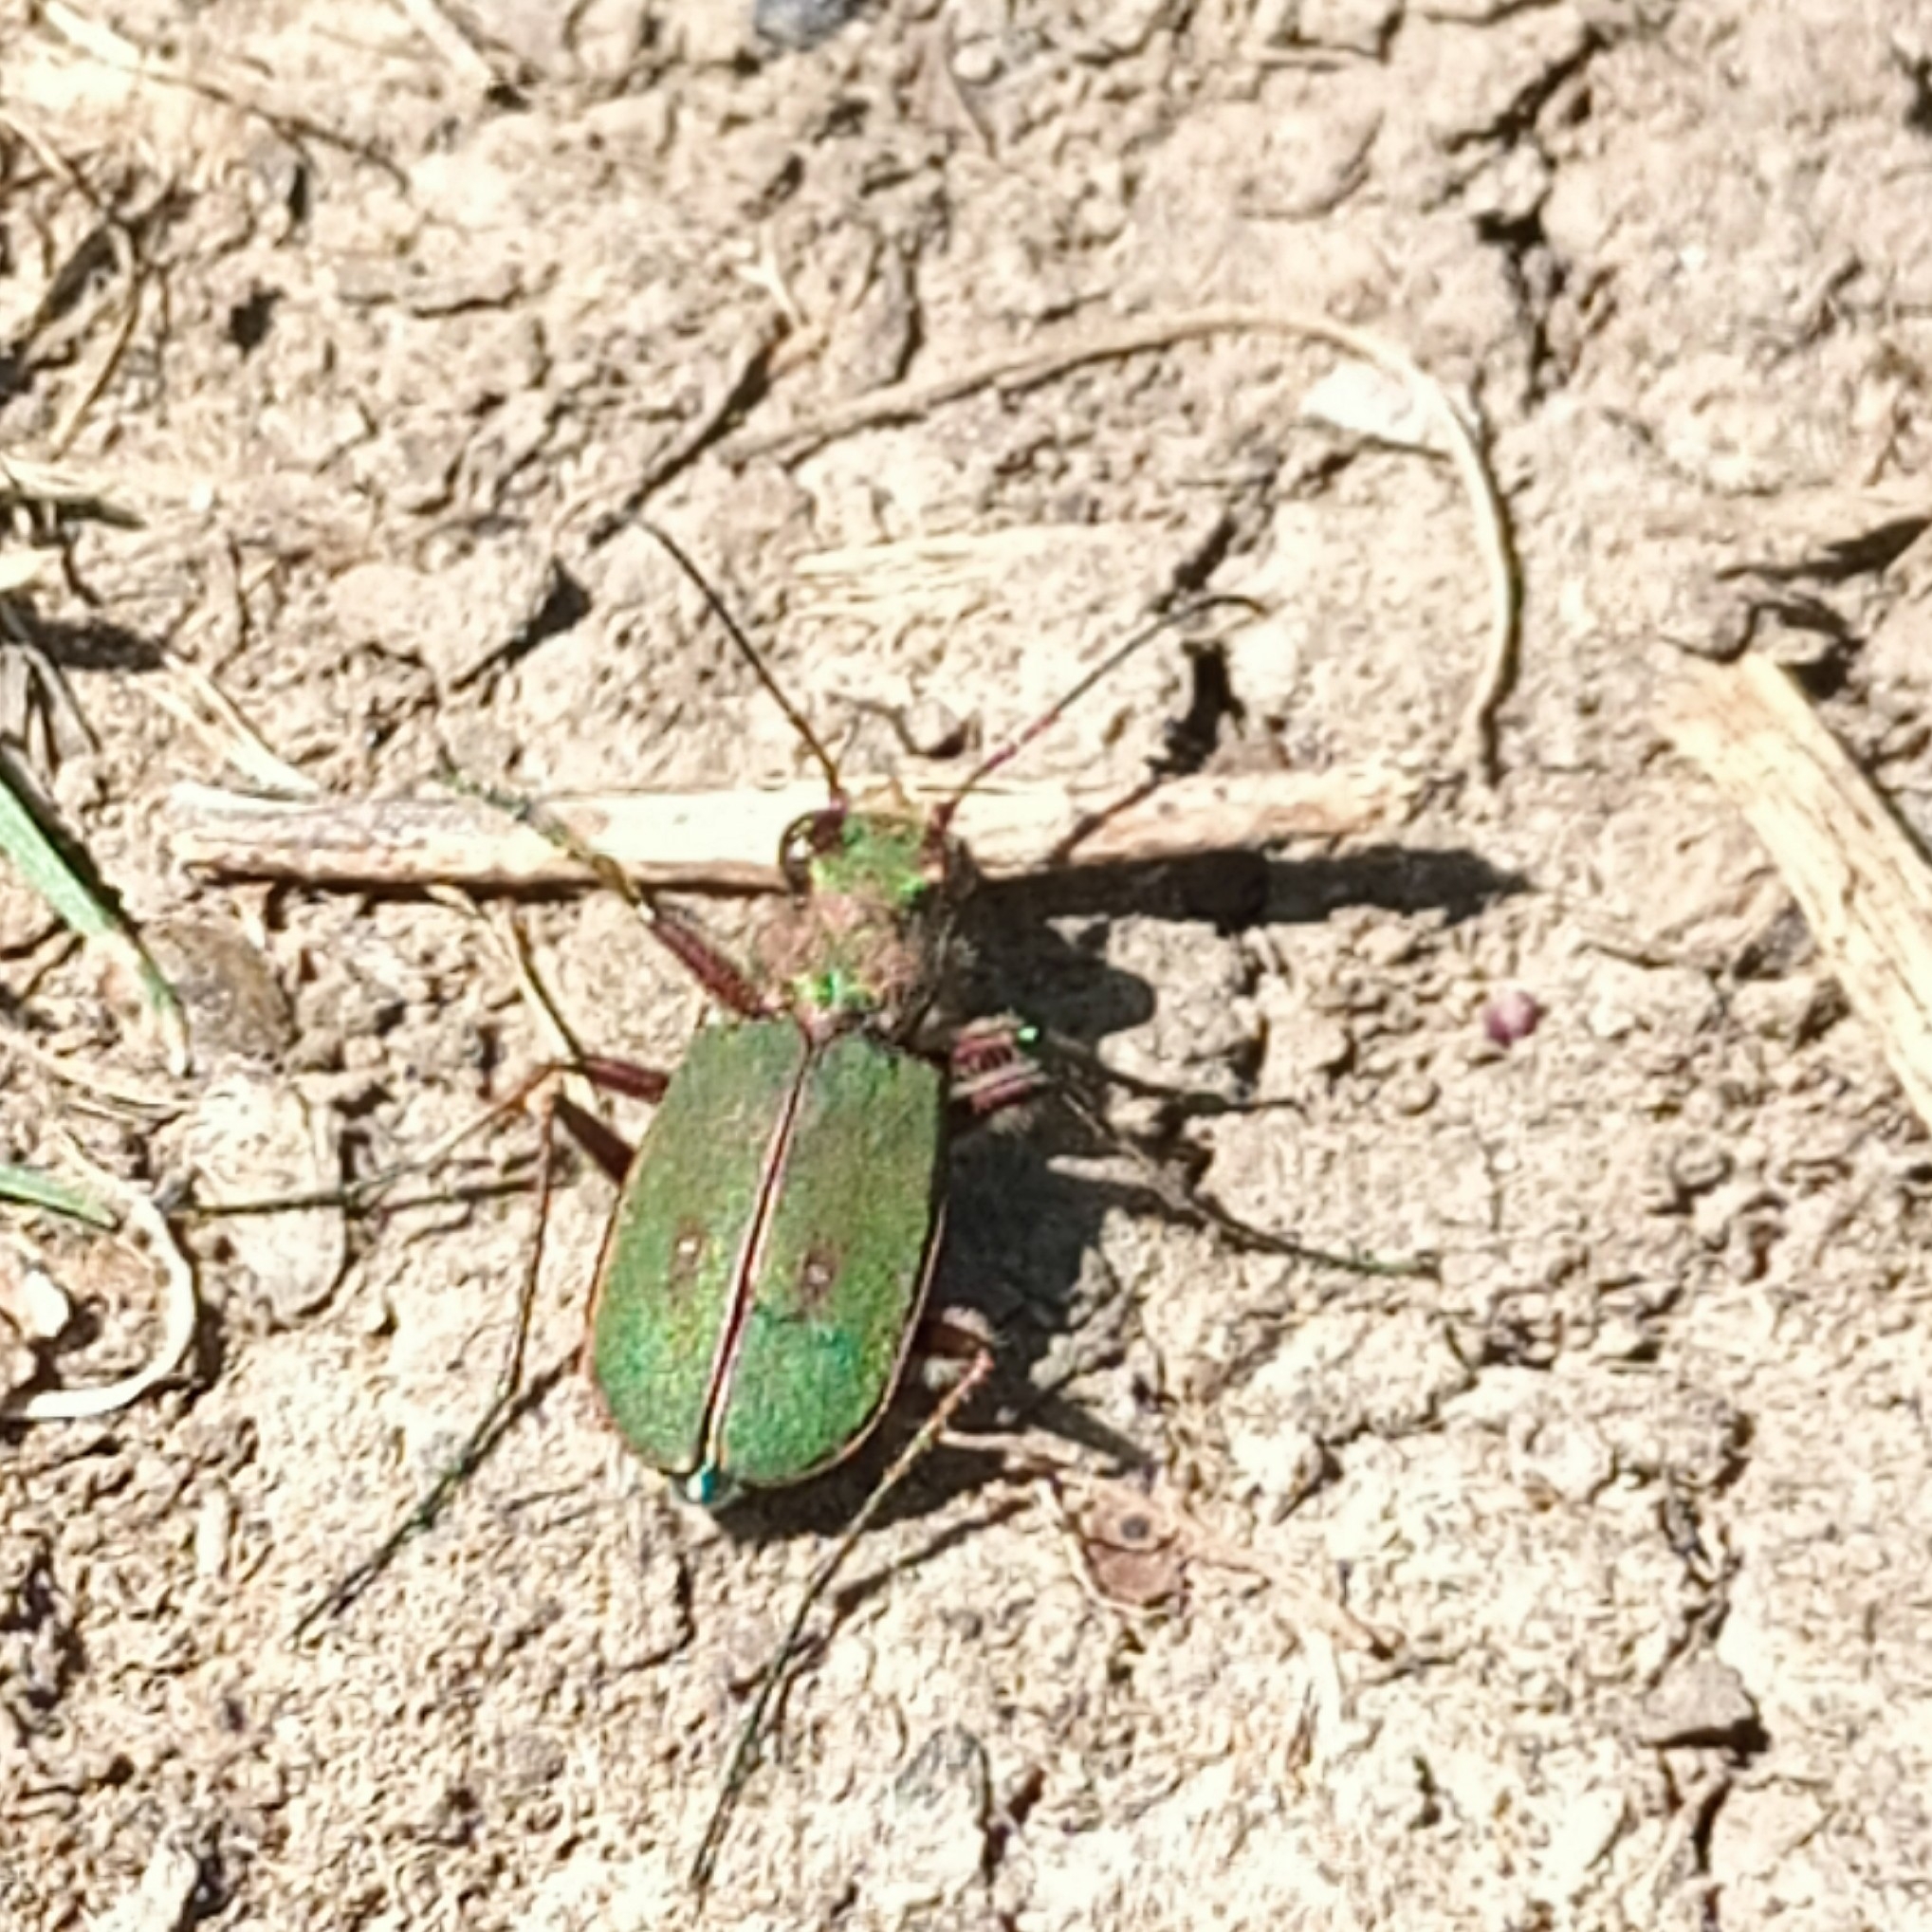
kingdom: Animalia
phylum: Arthropoda
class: Insecta
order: Coleoptera
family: Carabidae
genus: Cicindela
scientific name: Cicindela campestris
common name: Common tiger beetle
